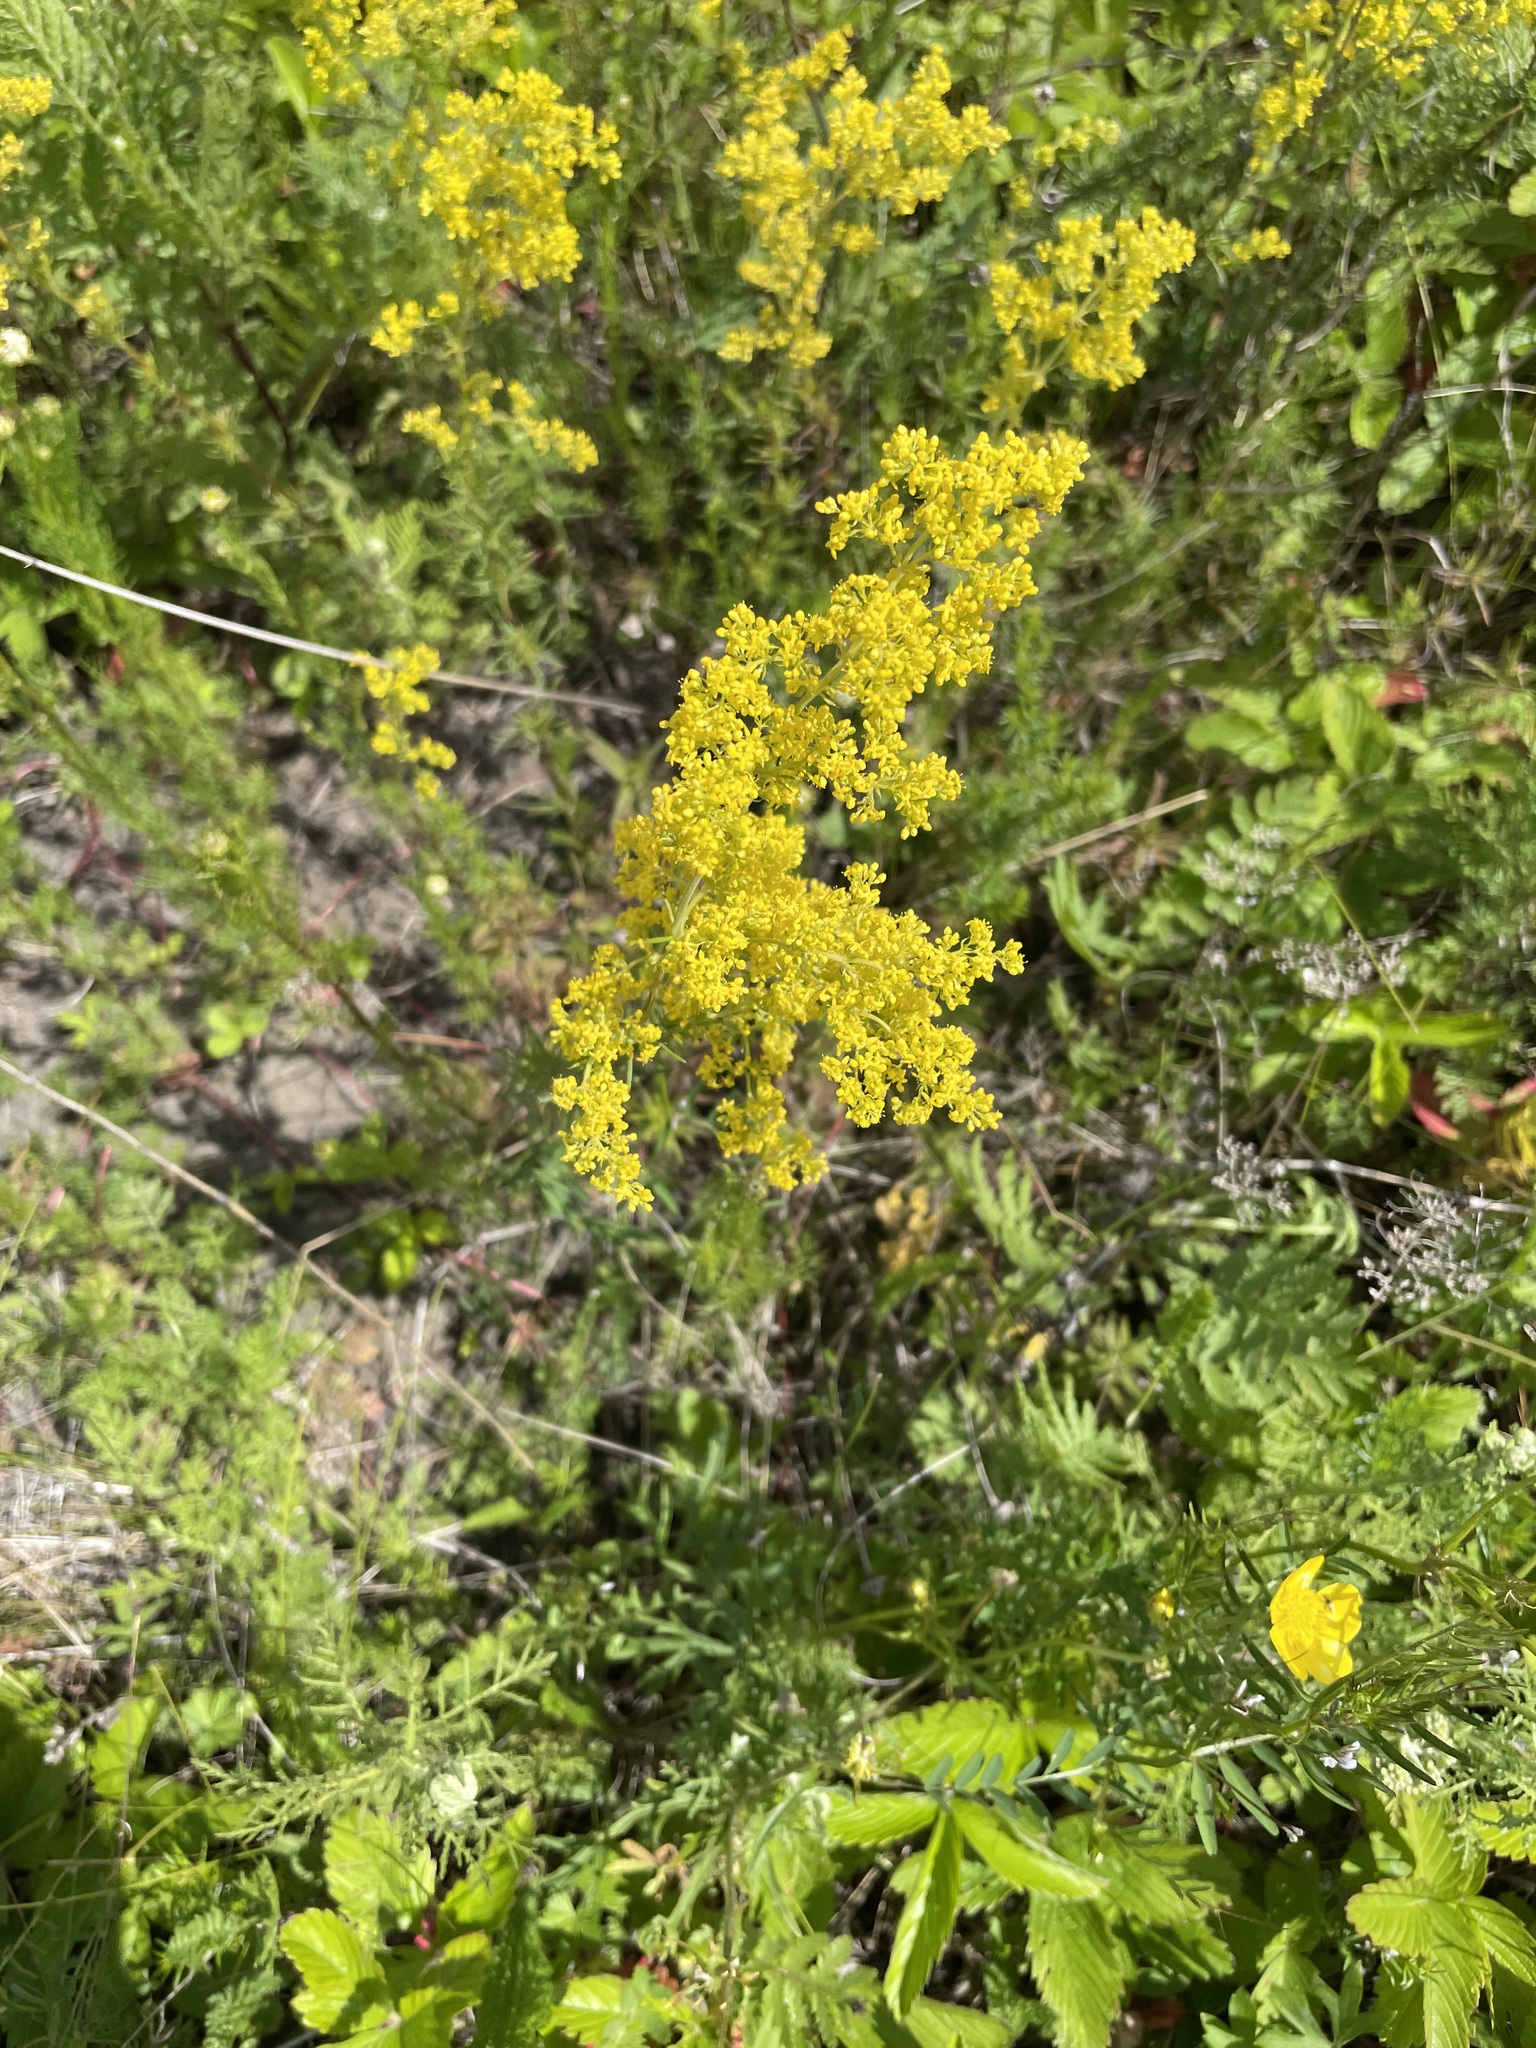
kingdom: Plantae
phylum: Tracheophyta
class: Magnoliopsida
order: Gentianales
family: Rubiaceae
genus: Galium
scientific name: Galium verum
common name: Lady's bedstraw
